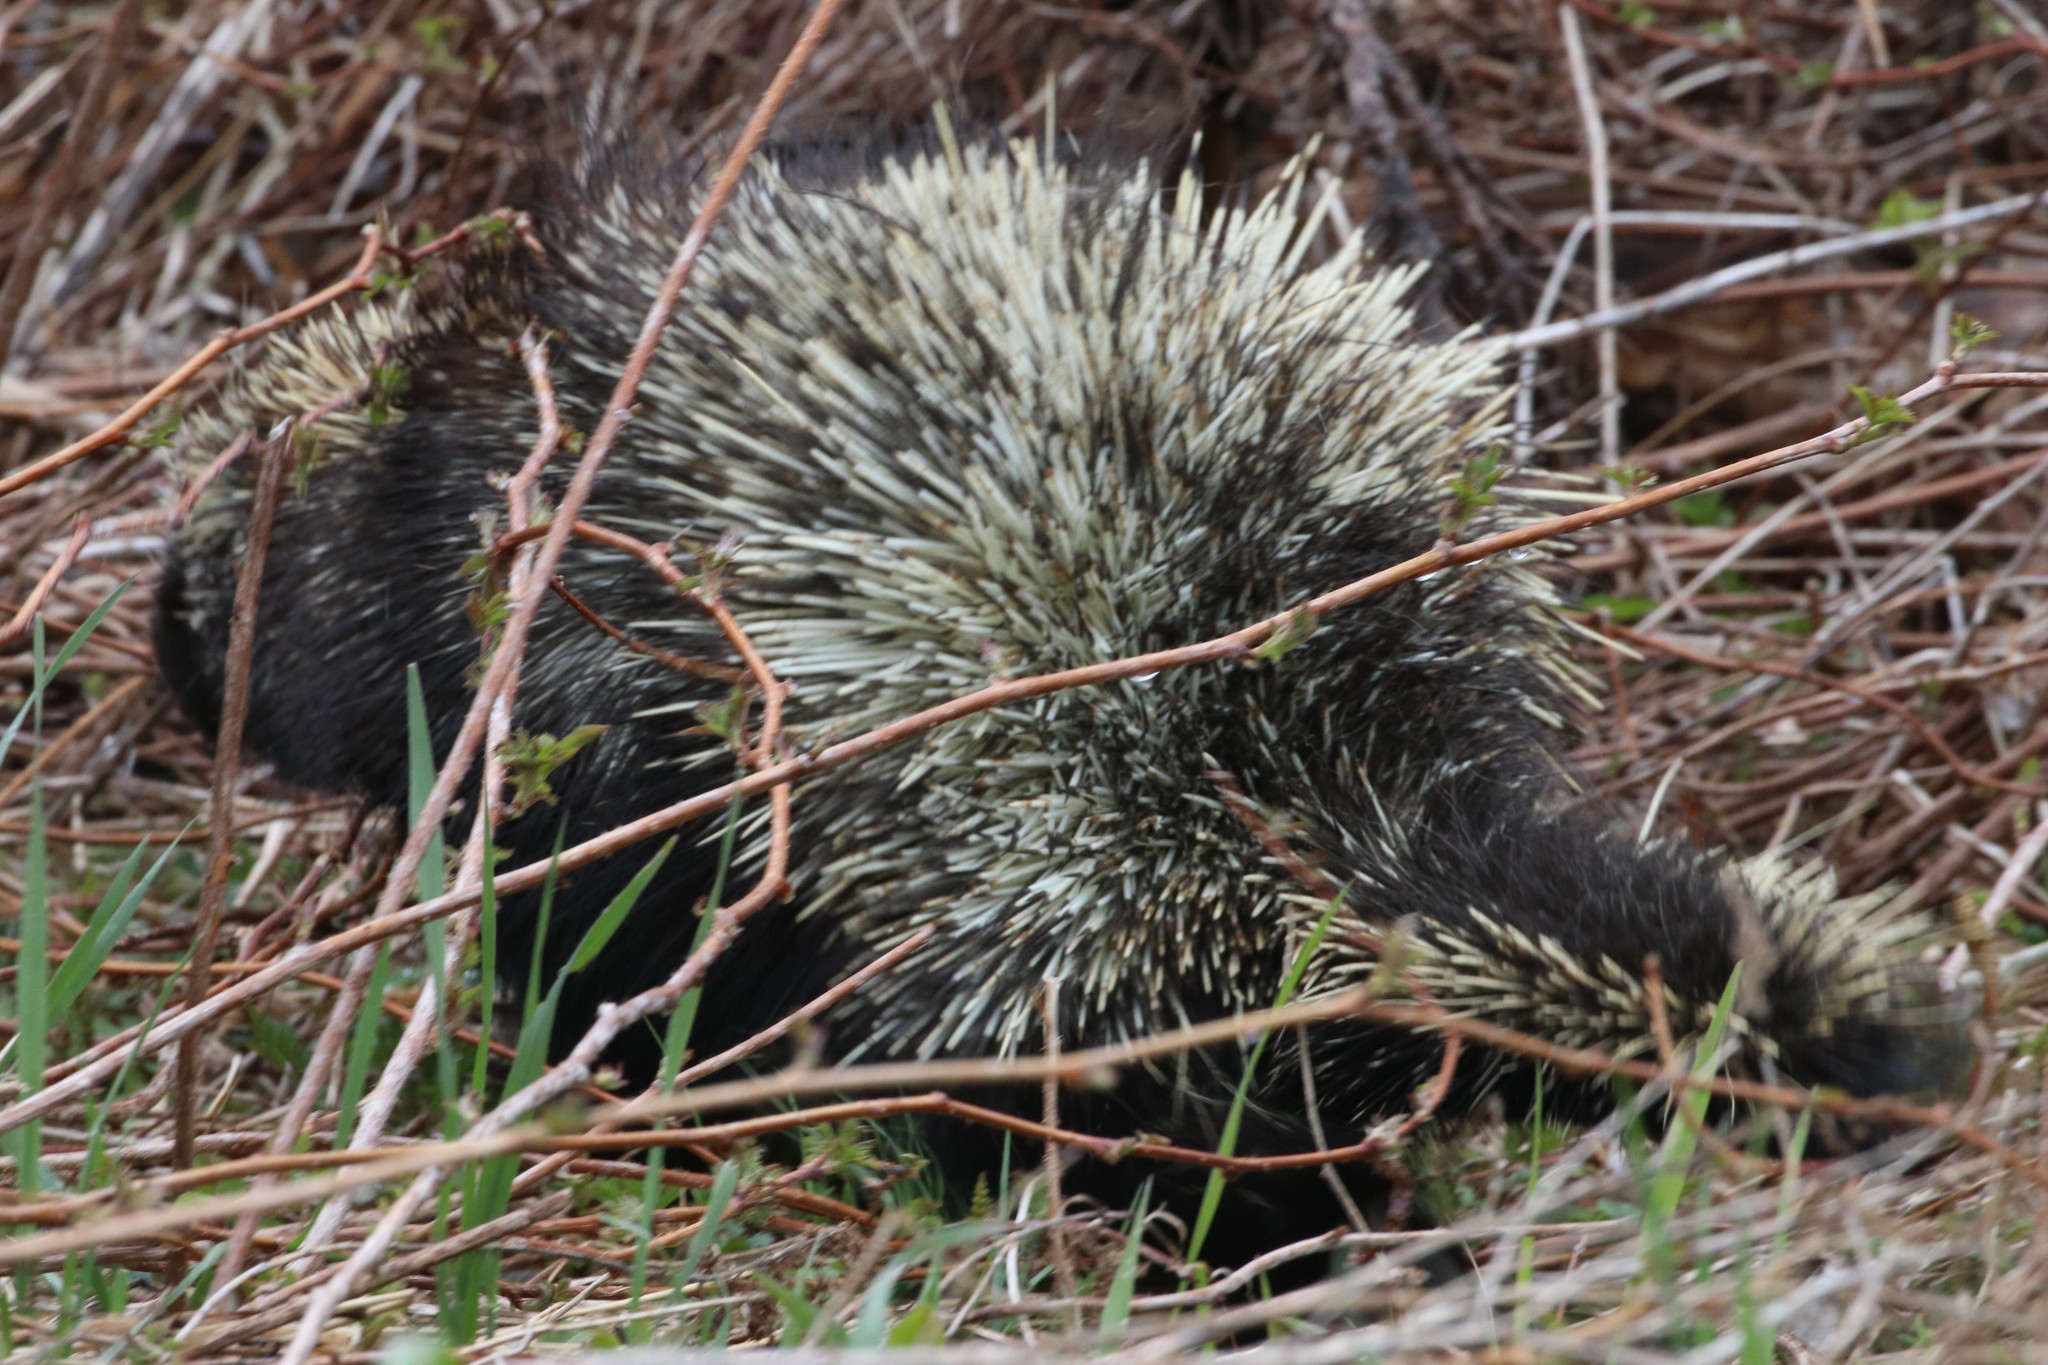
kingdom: Animalia
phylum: Chordata
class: Mammalia
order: Rodentia
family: Erethizontidae
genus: Erethizon
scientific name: Erethizon dorsatus
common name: North american porcupine
